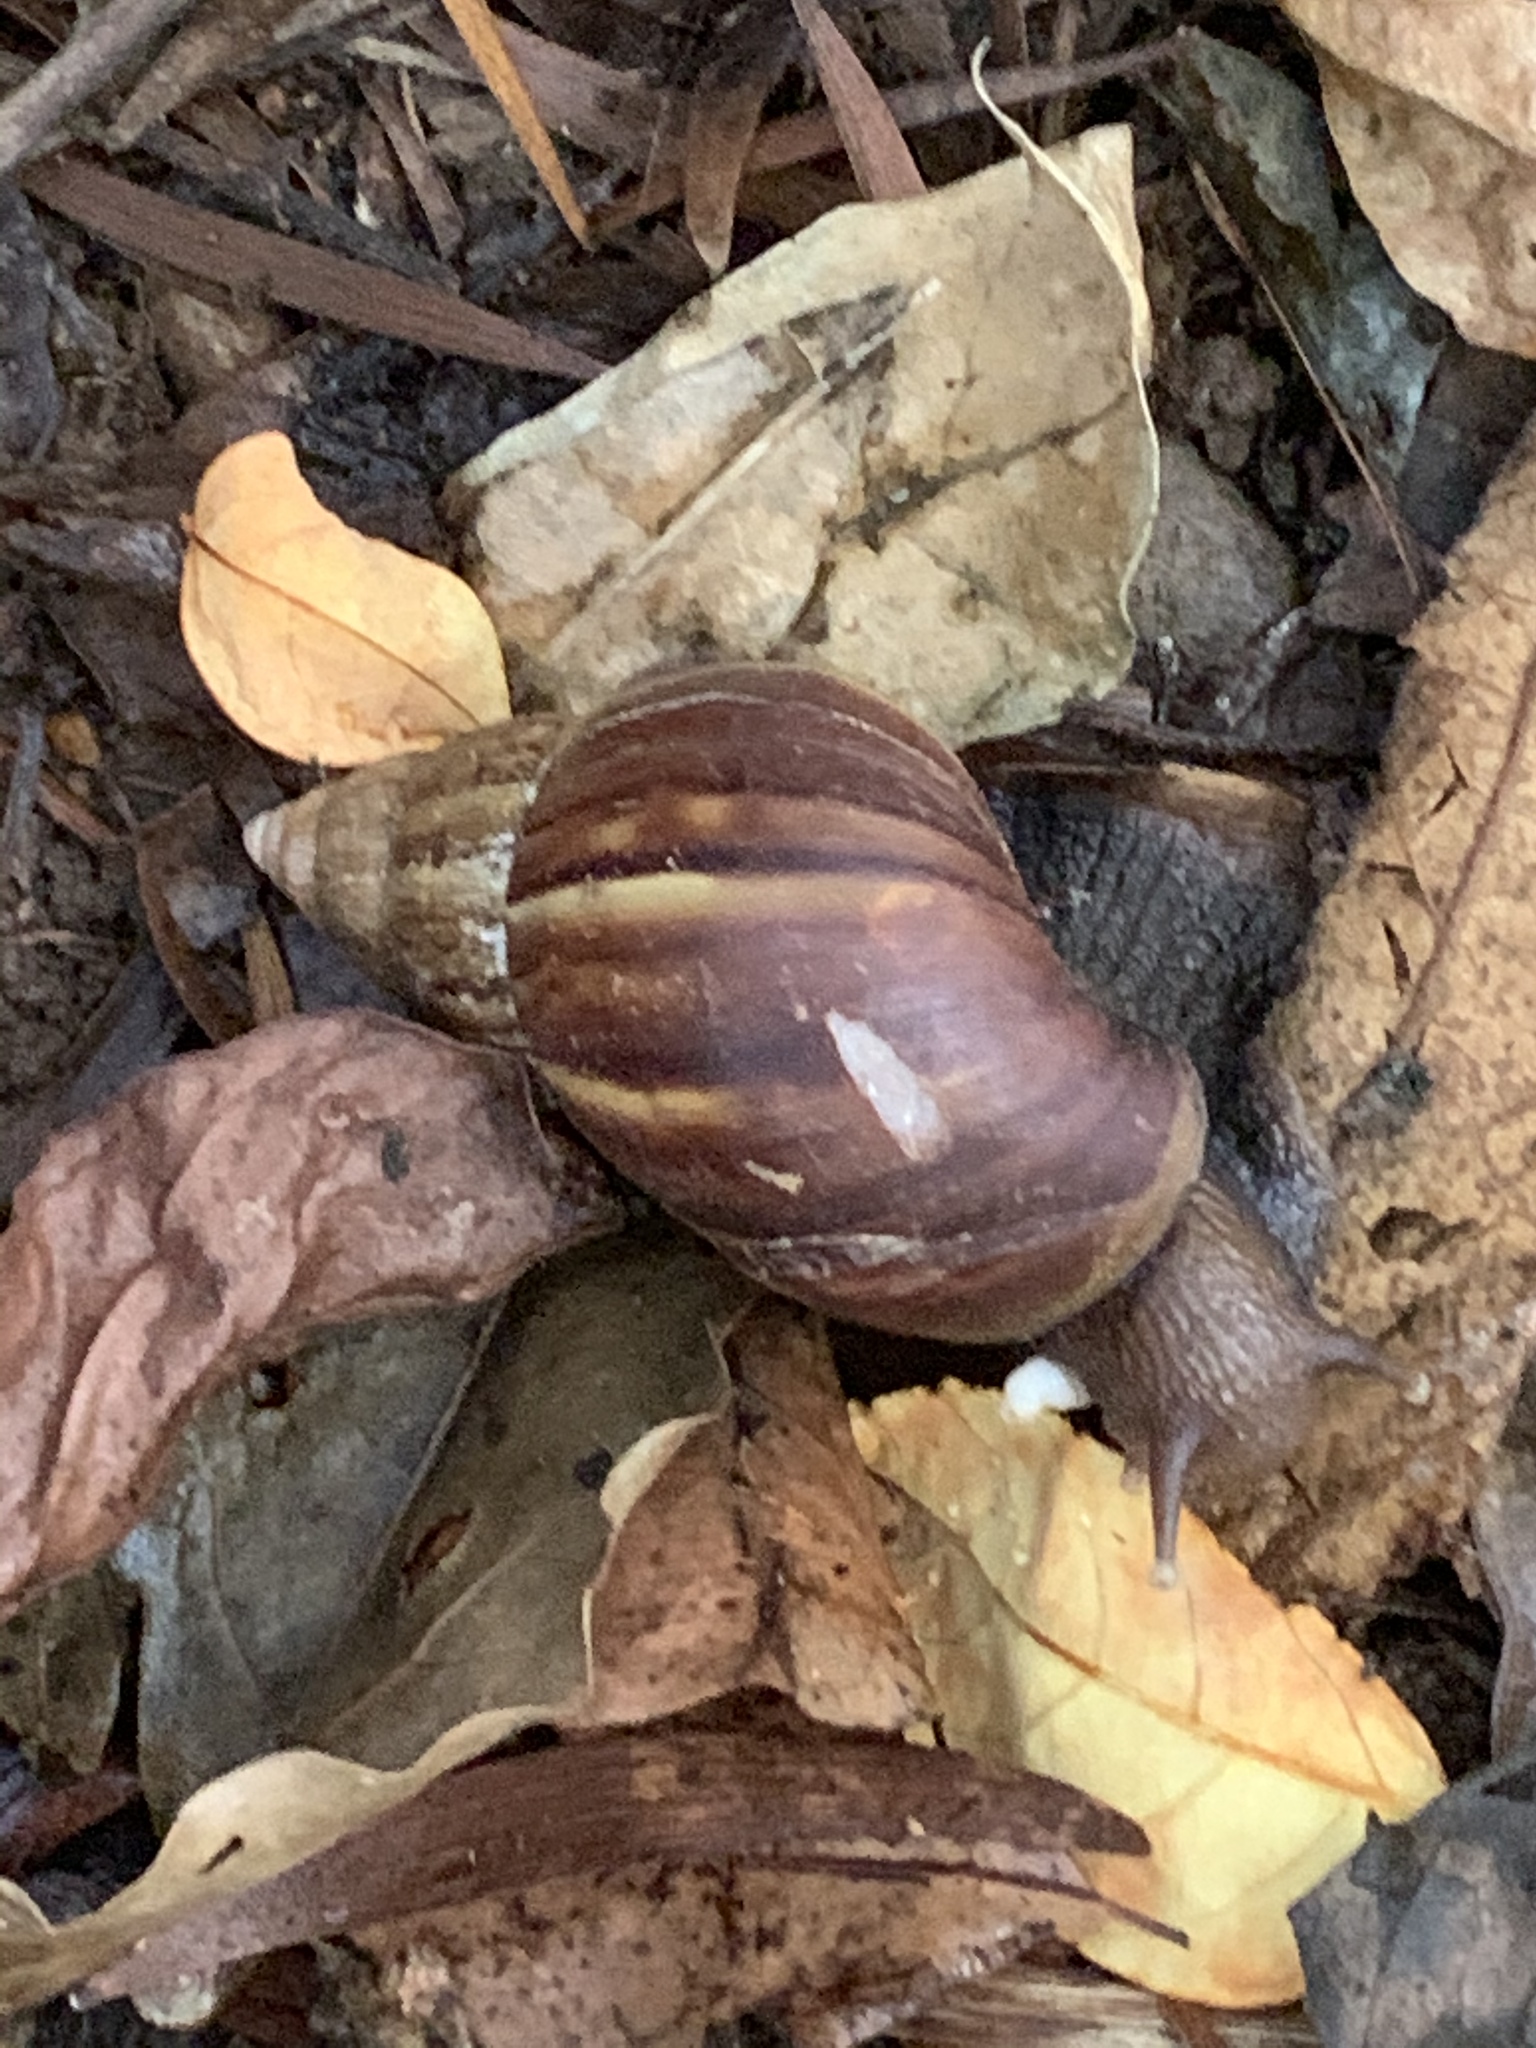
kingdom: Animalia
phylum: Mollusca
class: Gastropoda
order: Stylommatophora
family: Achatinidae
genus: Lissachatina
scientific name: Lissachatina fulica
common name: Giant african snail
